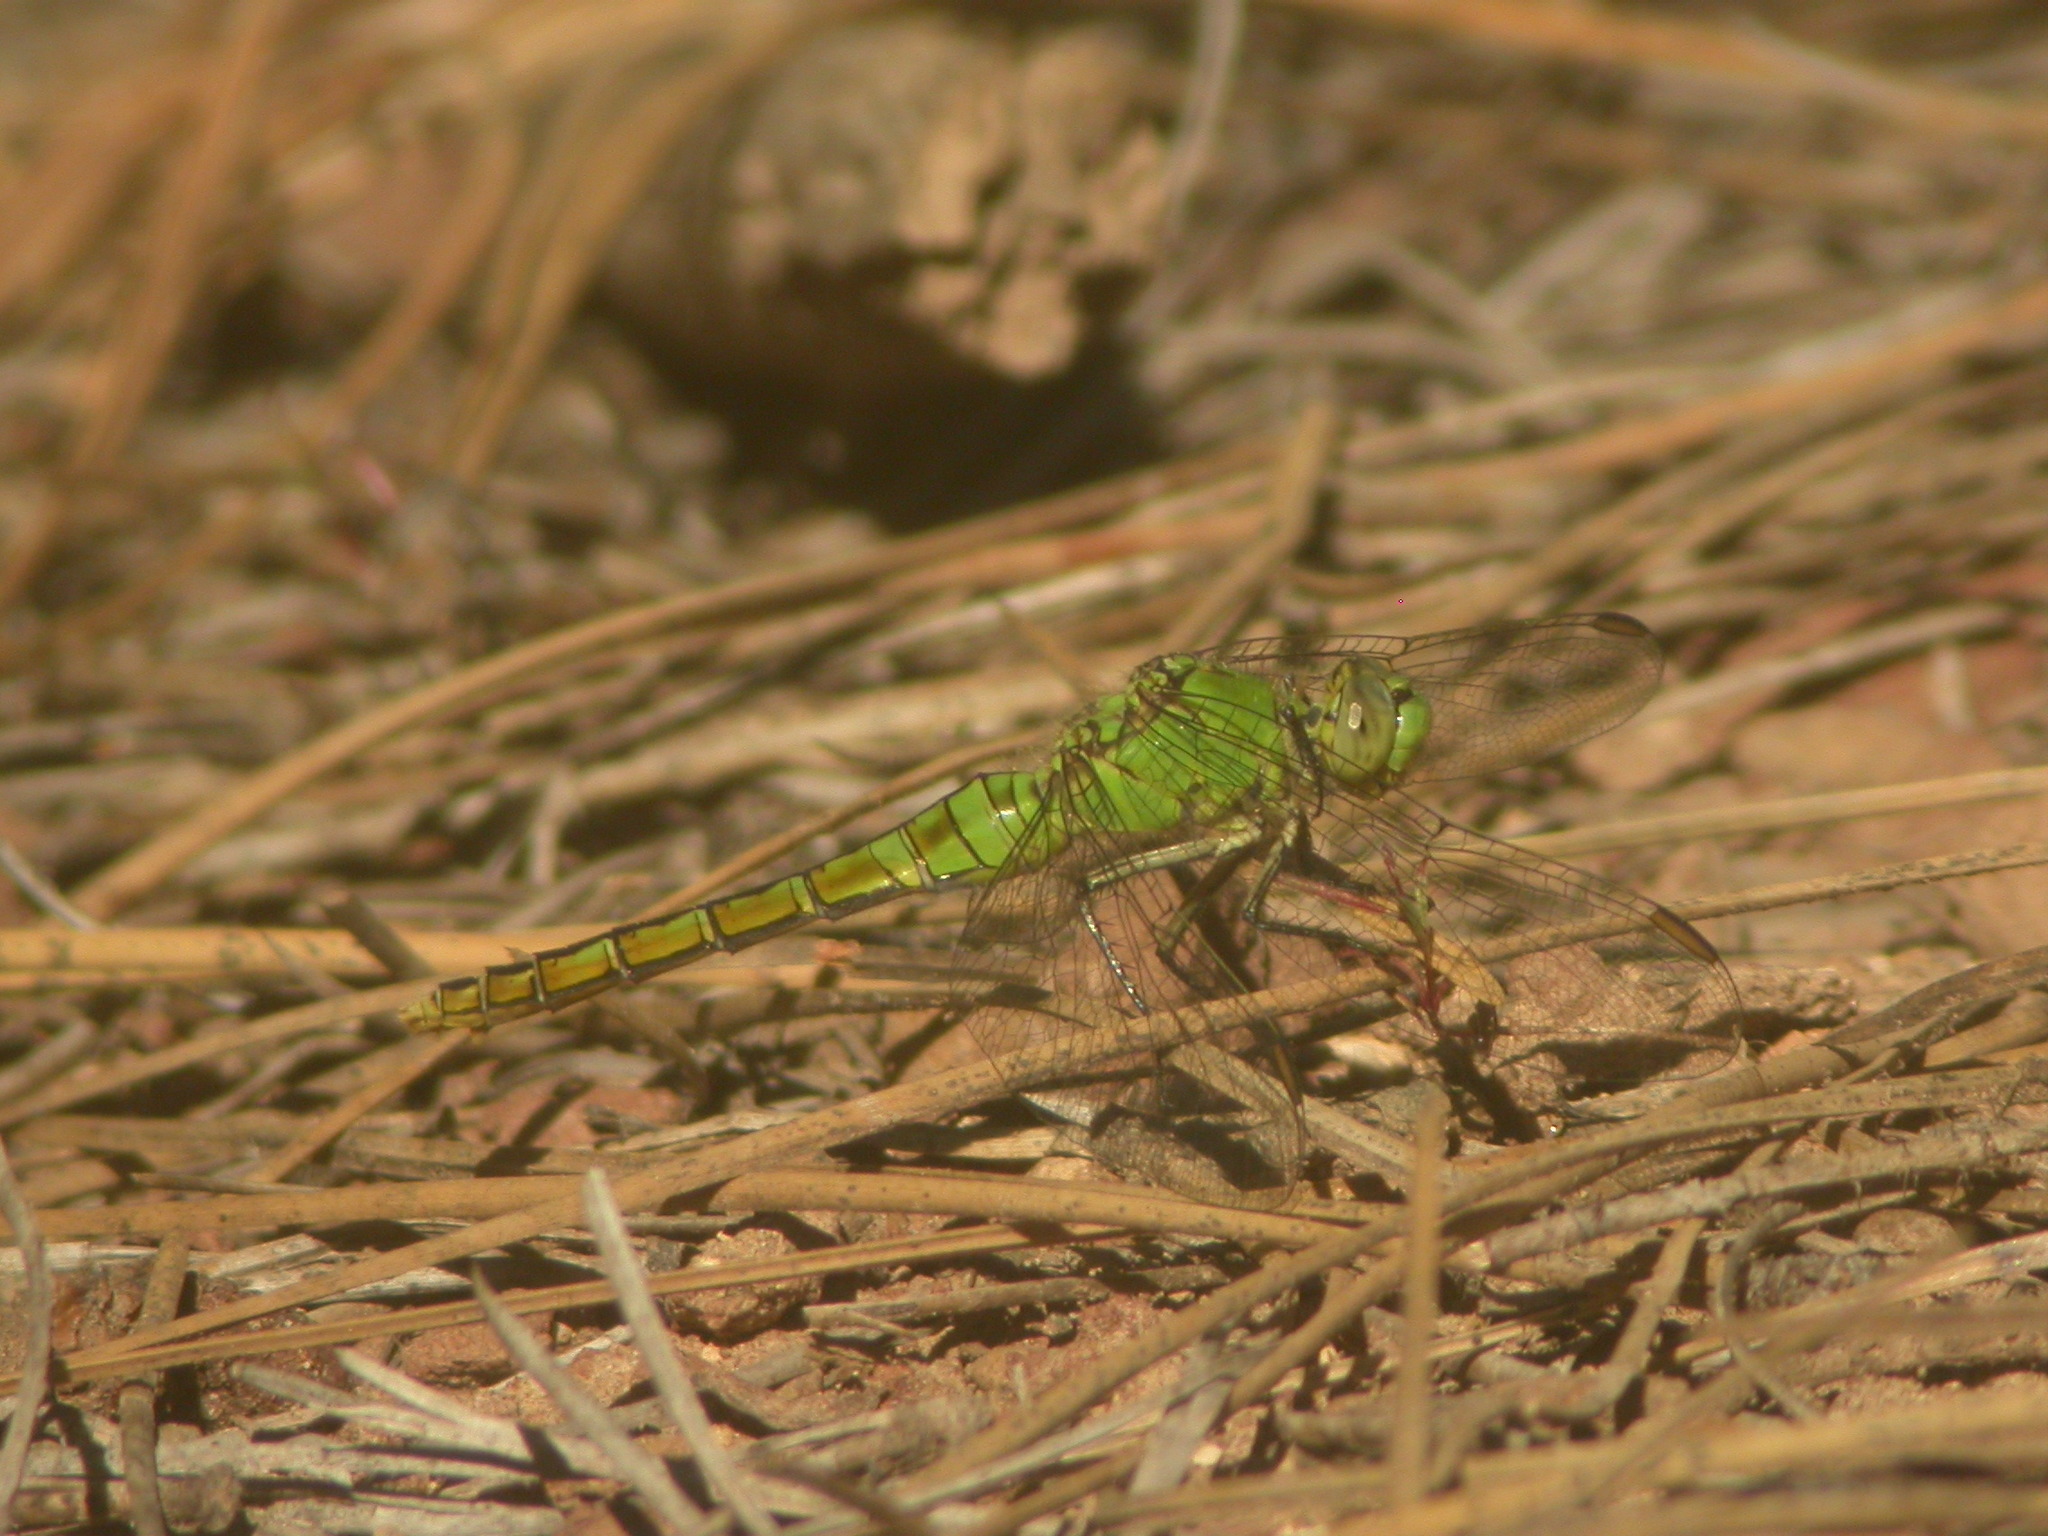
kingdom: Animalia
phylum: Arthropoda
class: Insecta
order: Odonata
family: Libellulidae
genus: Erythemis
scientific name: Erythemis collocata
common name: Western pondhawk
